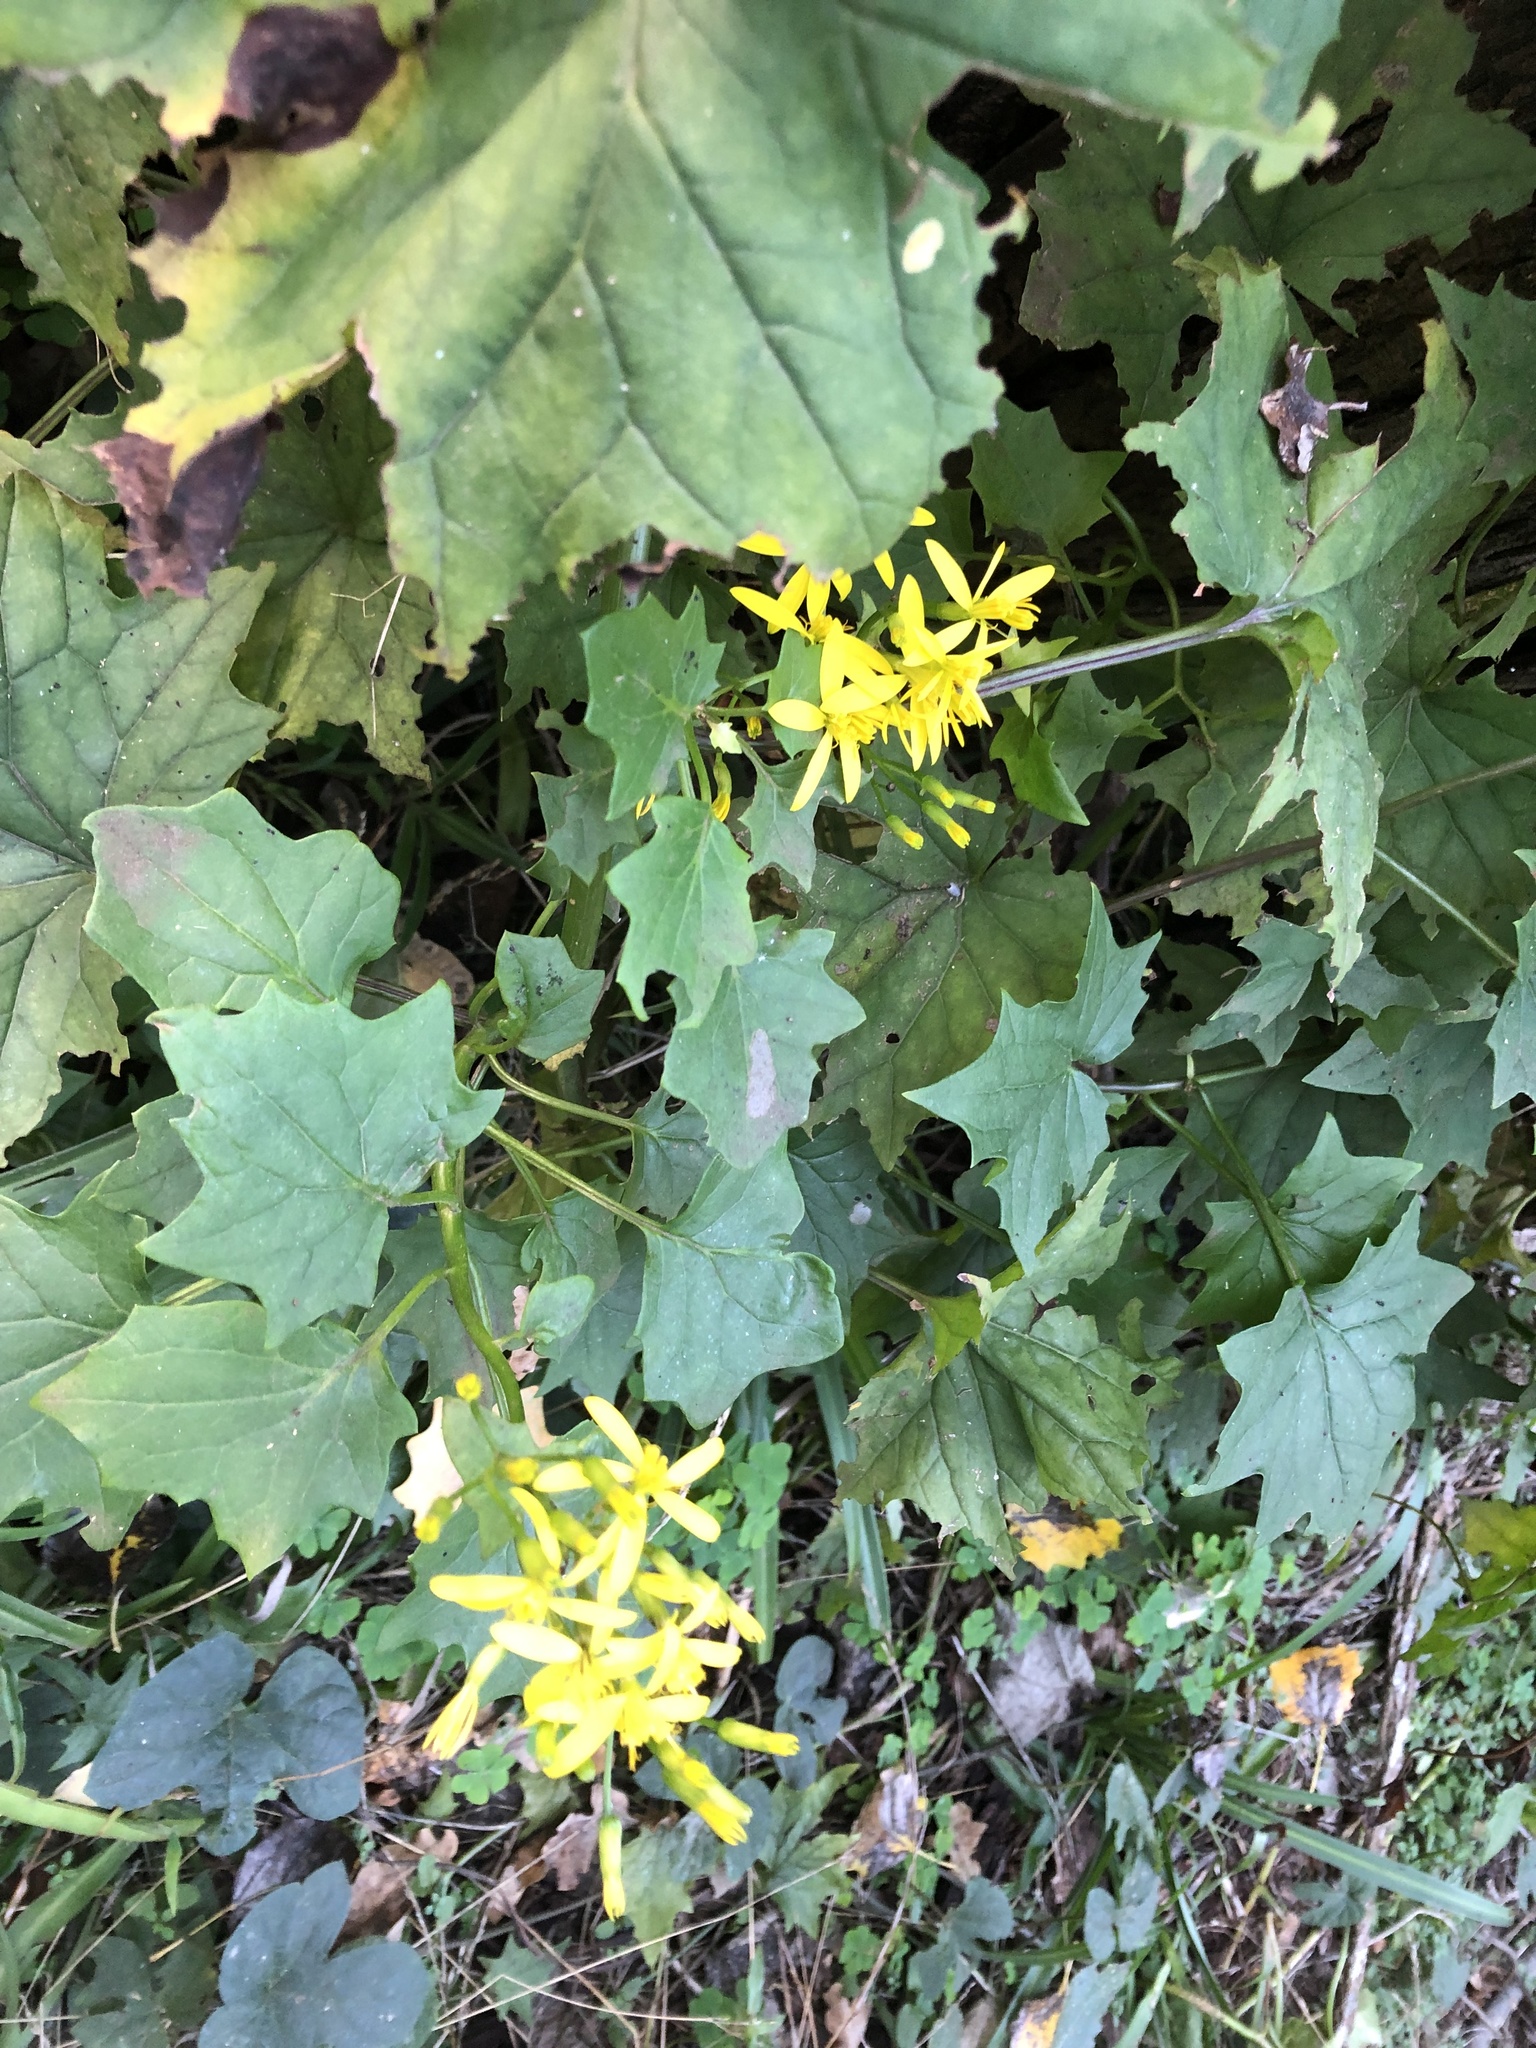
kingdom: Plantae
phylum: Tracheophyta
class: Magnoliopsida
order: Asterales
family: Asteraceae
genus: Senecio
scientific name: Senecio tamoides
